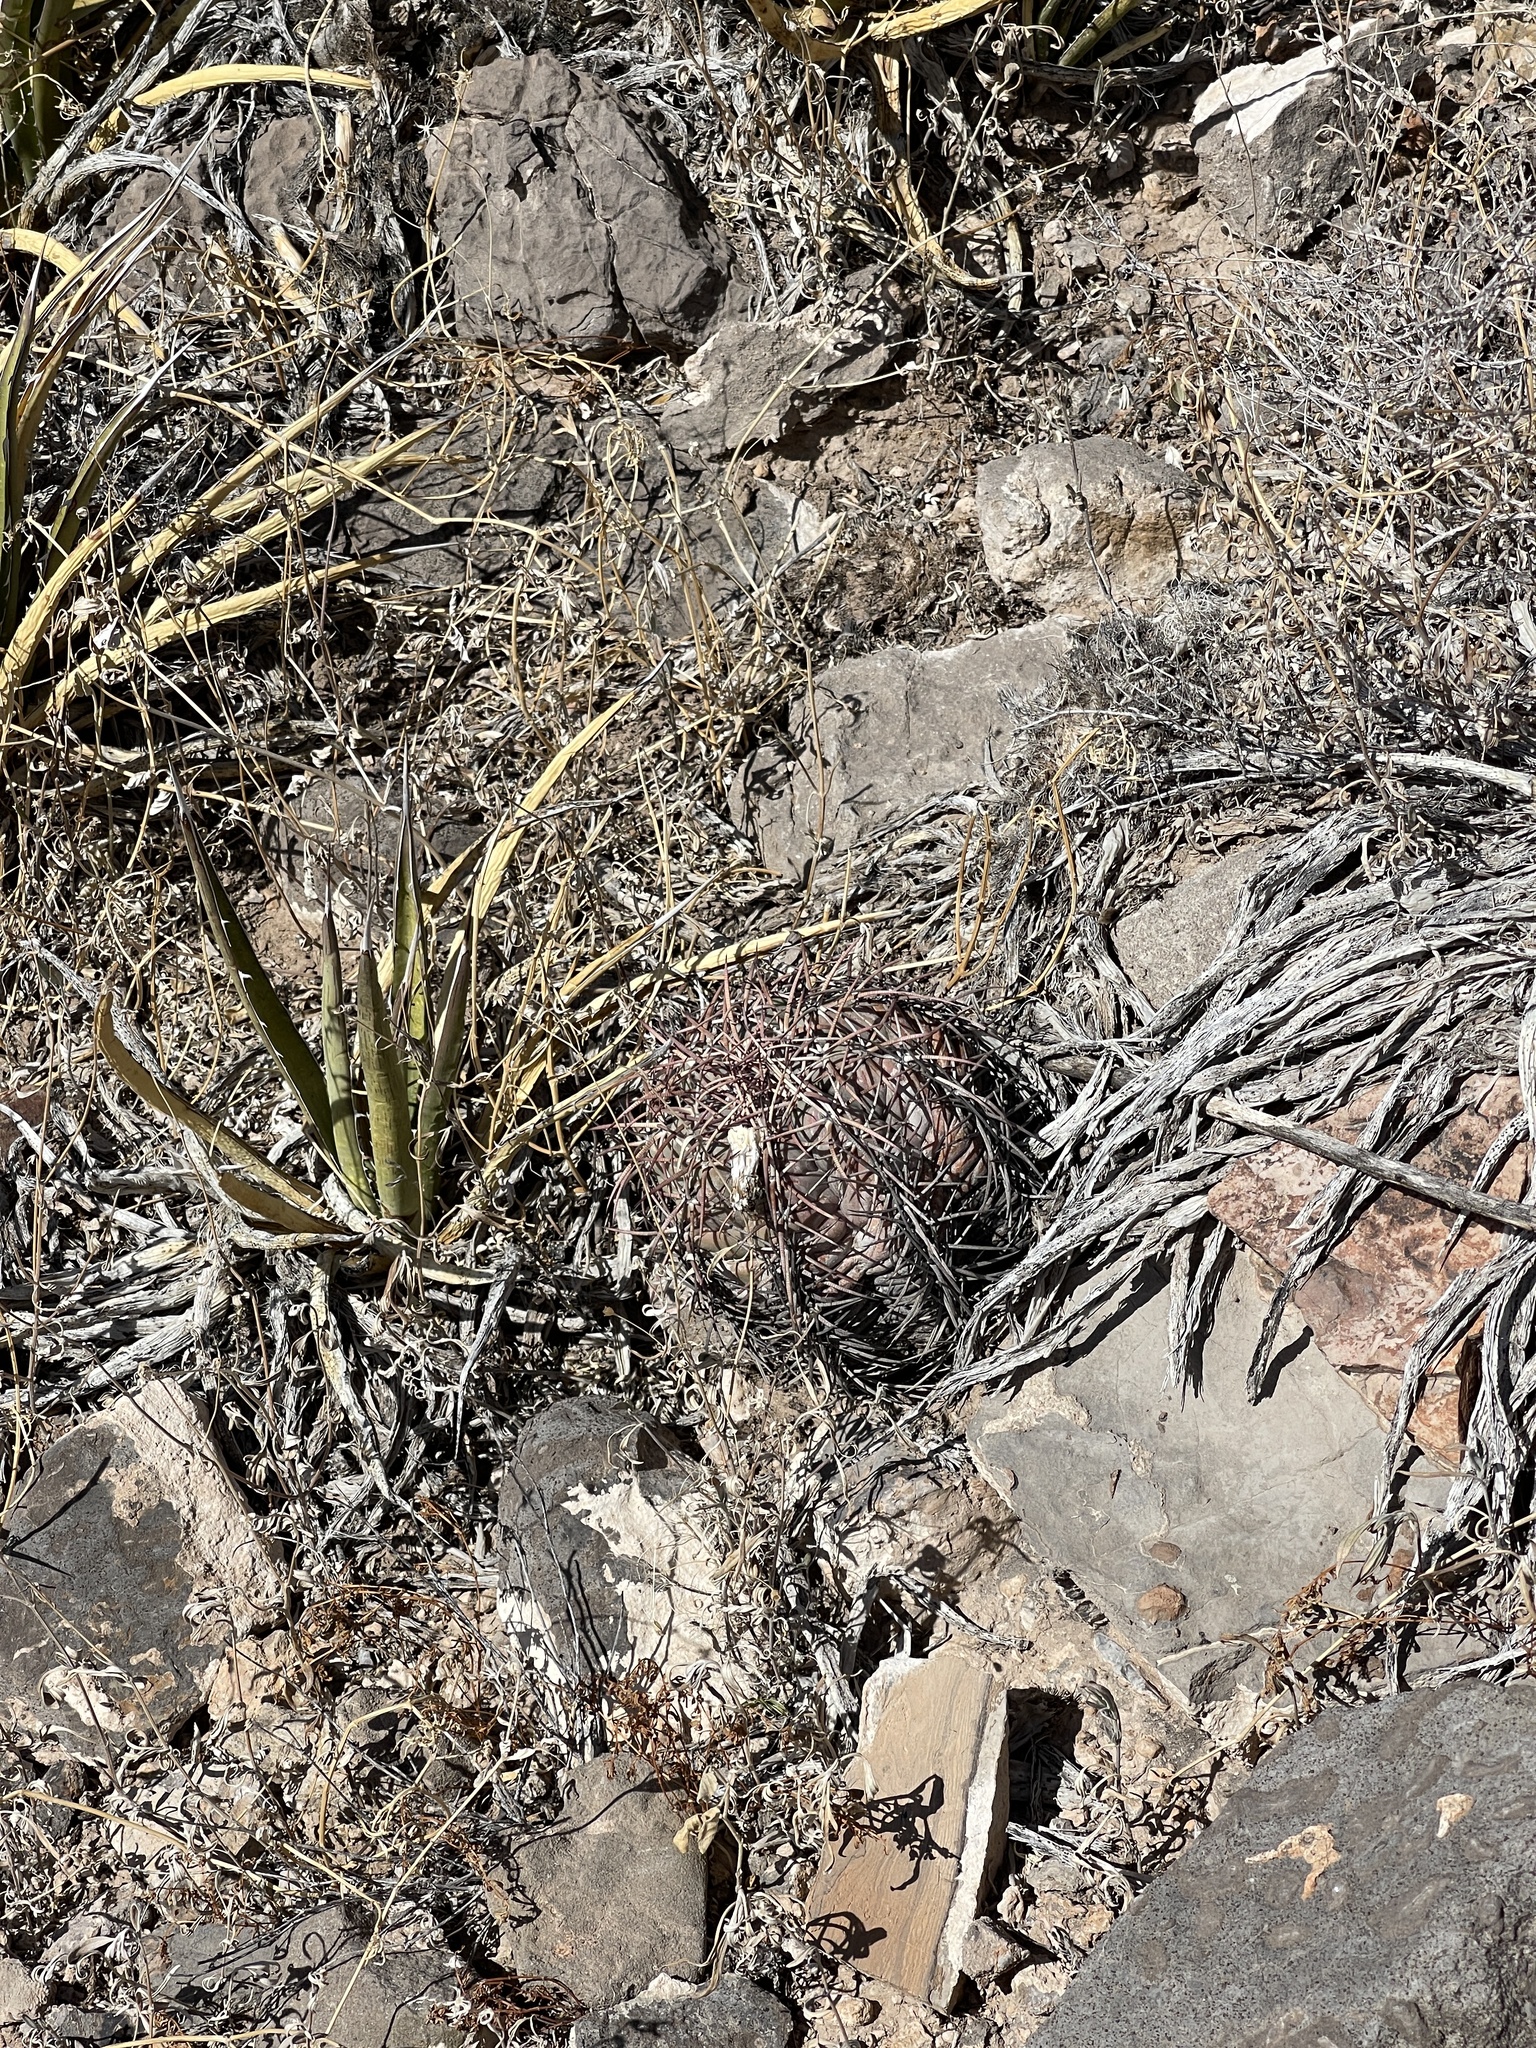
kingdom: Plantae
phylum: Tracheophyta
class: Magnoliopsida
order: Caryophyllales
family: Cactaceae
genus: Echinocactus
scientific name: Echinocactus horizonthalonius
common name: Devilshead
